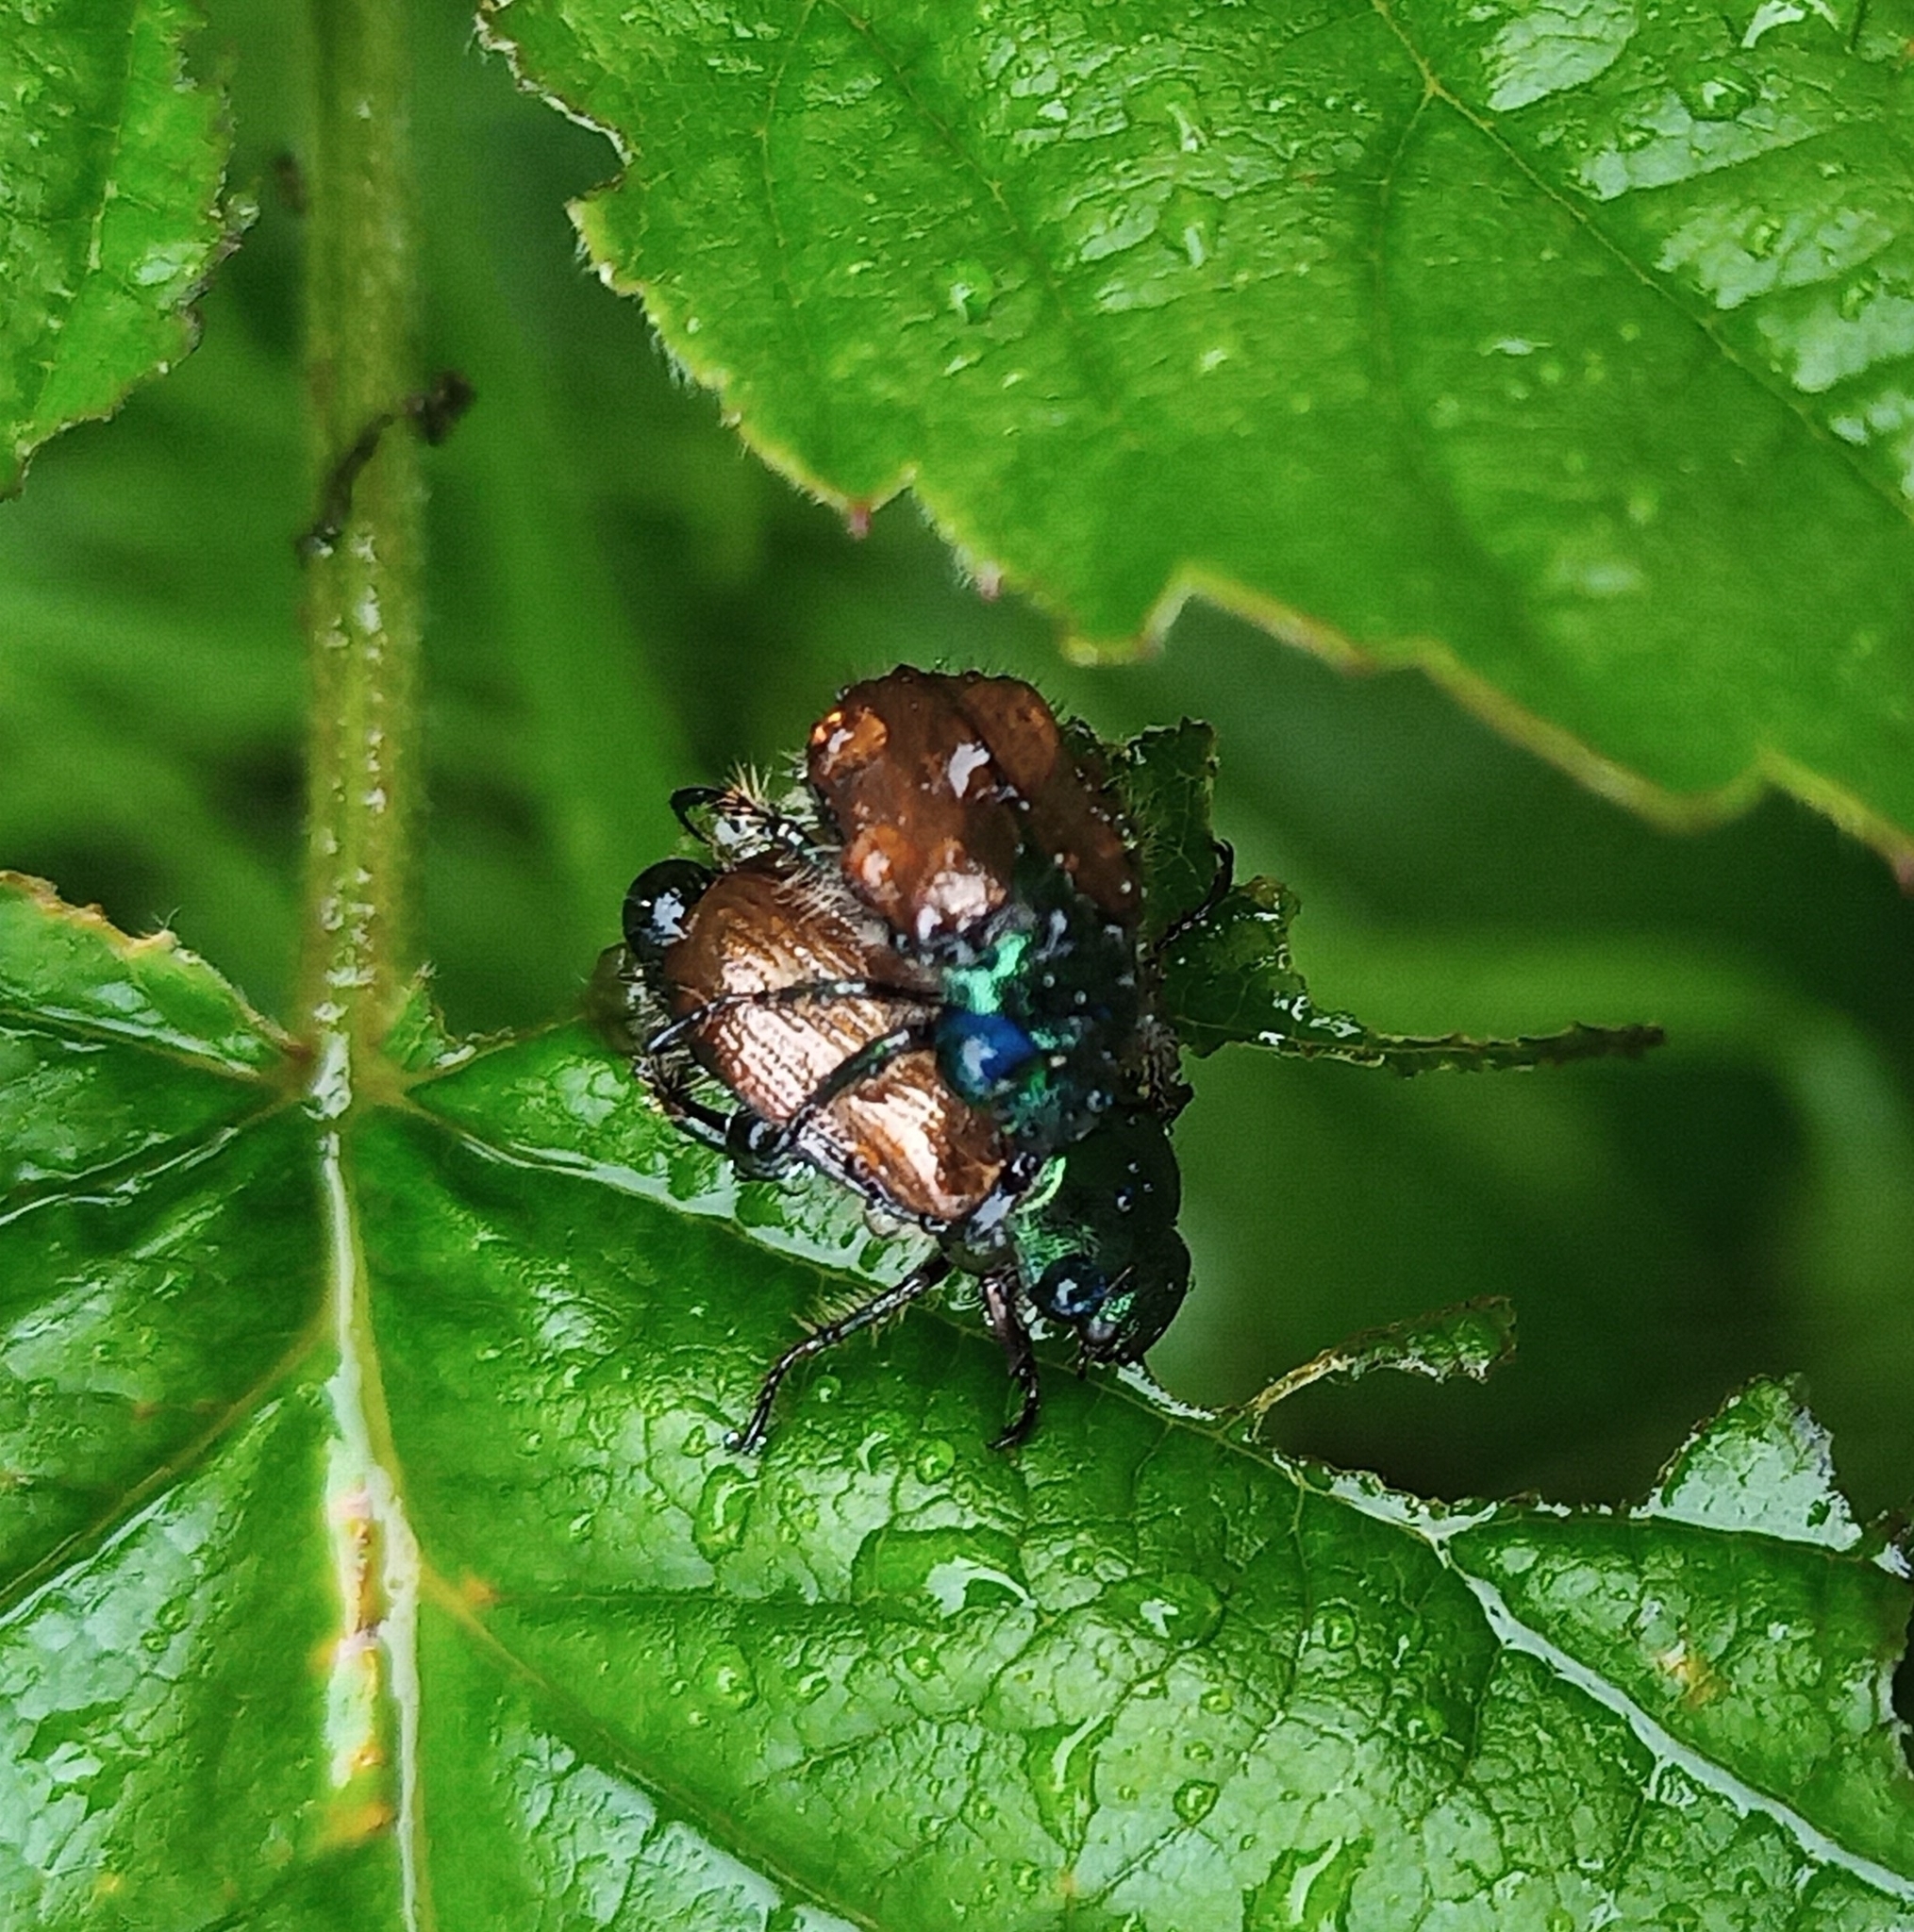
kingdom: Animalia
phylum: Arthropoda
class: Insecta
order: Coleoptera
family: Scarabaeidae
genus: Phyllopertha
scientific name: Phyllopertha horticola
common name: Garden chafer
